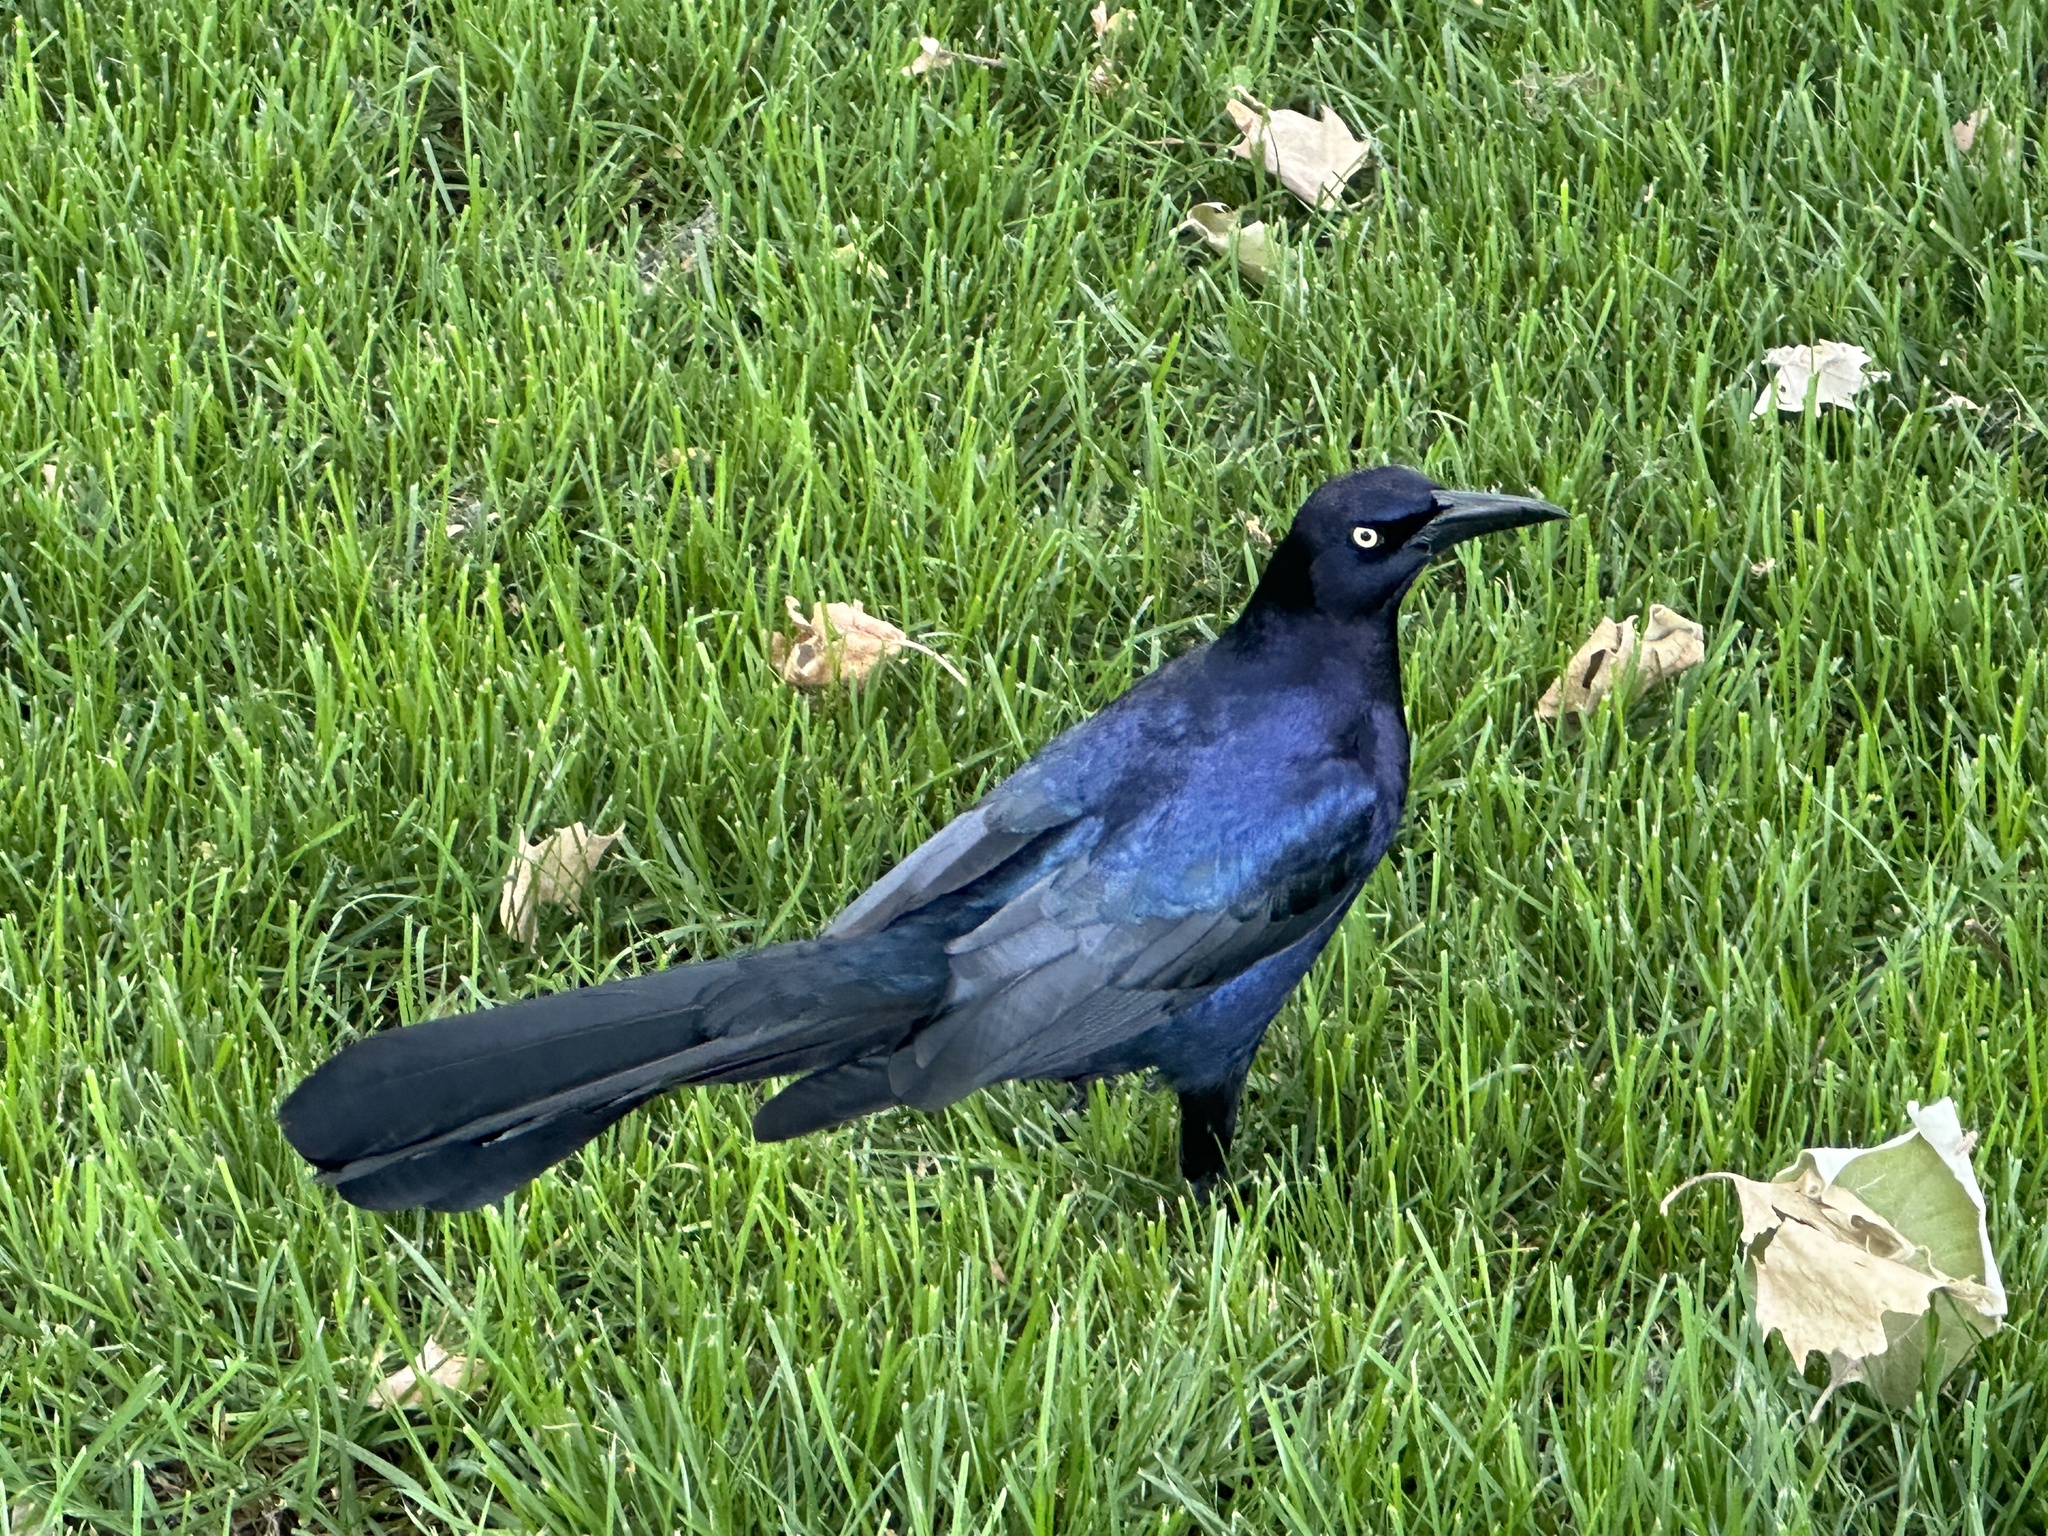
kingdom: Animalia
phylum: Chordata
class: Aves
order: Passeriformes
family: Icteridae
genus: Quiscalus
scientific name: Quiscalus mexicanus
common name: Great-tailed grackle
